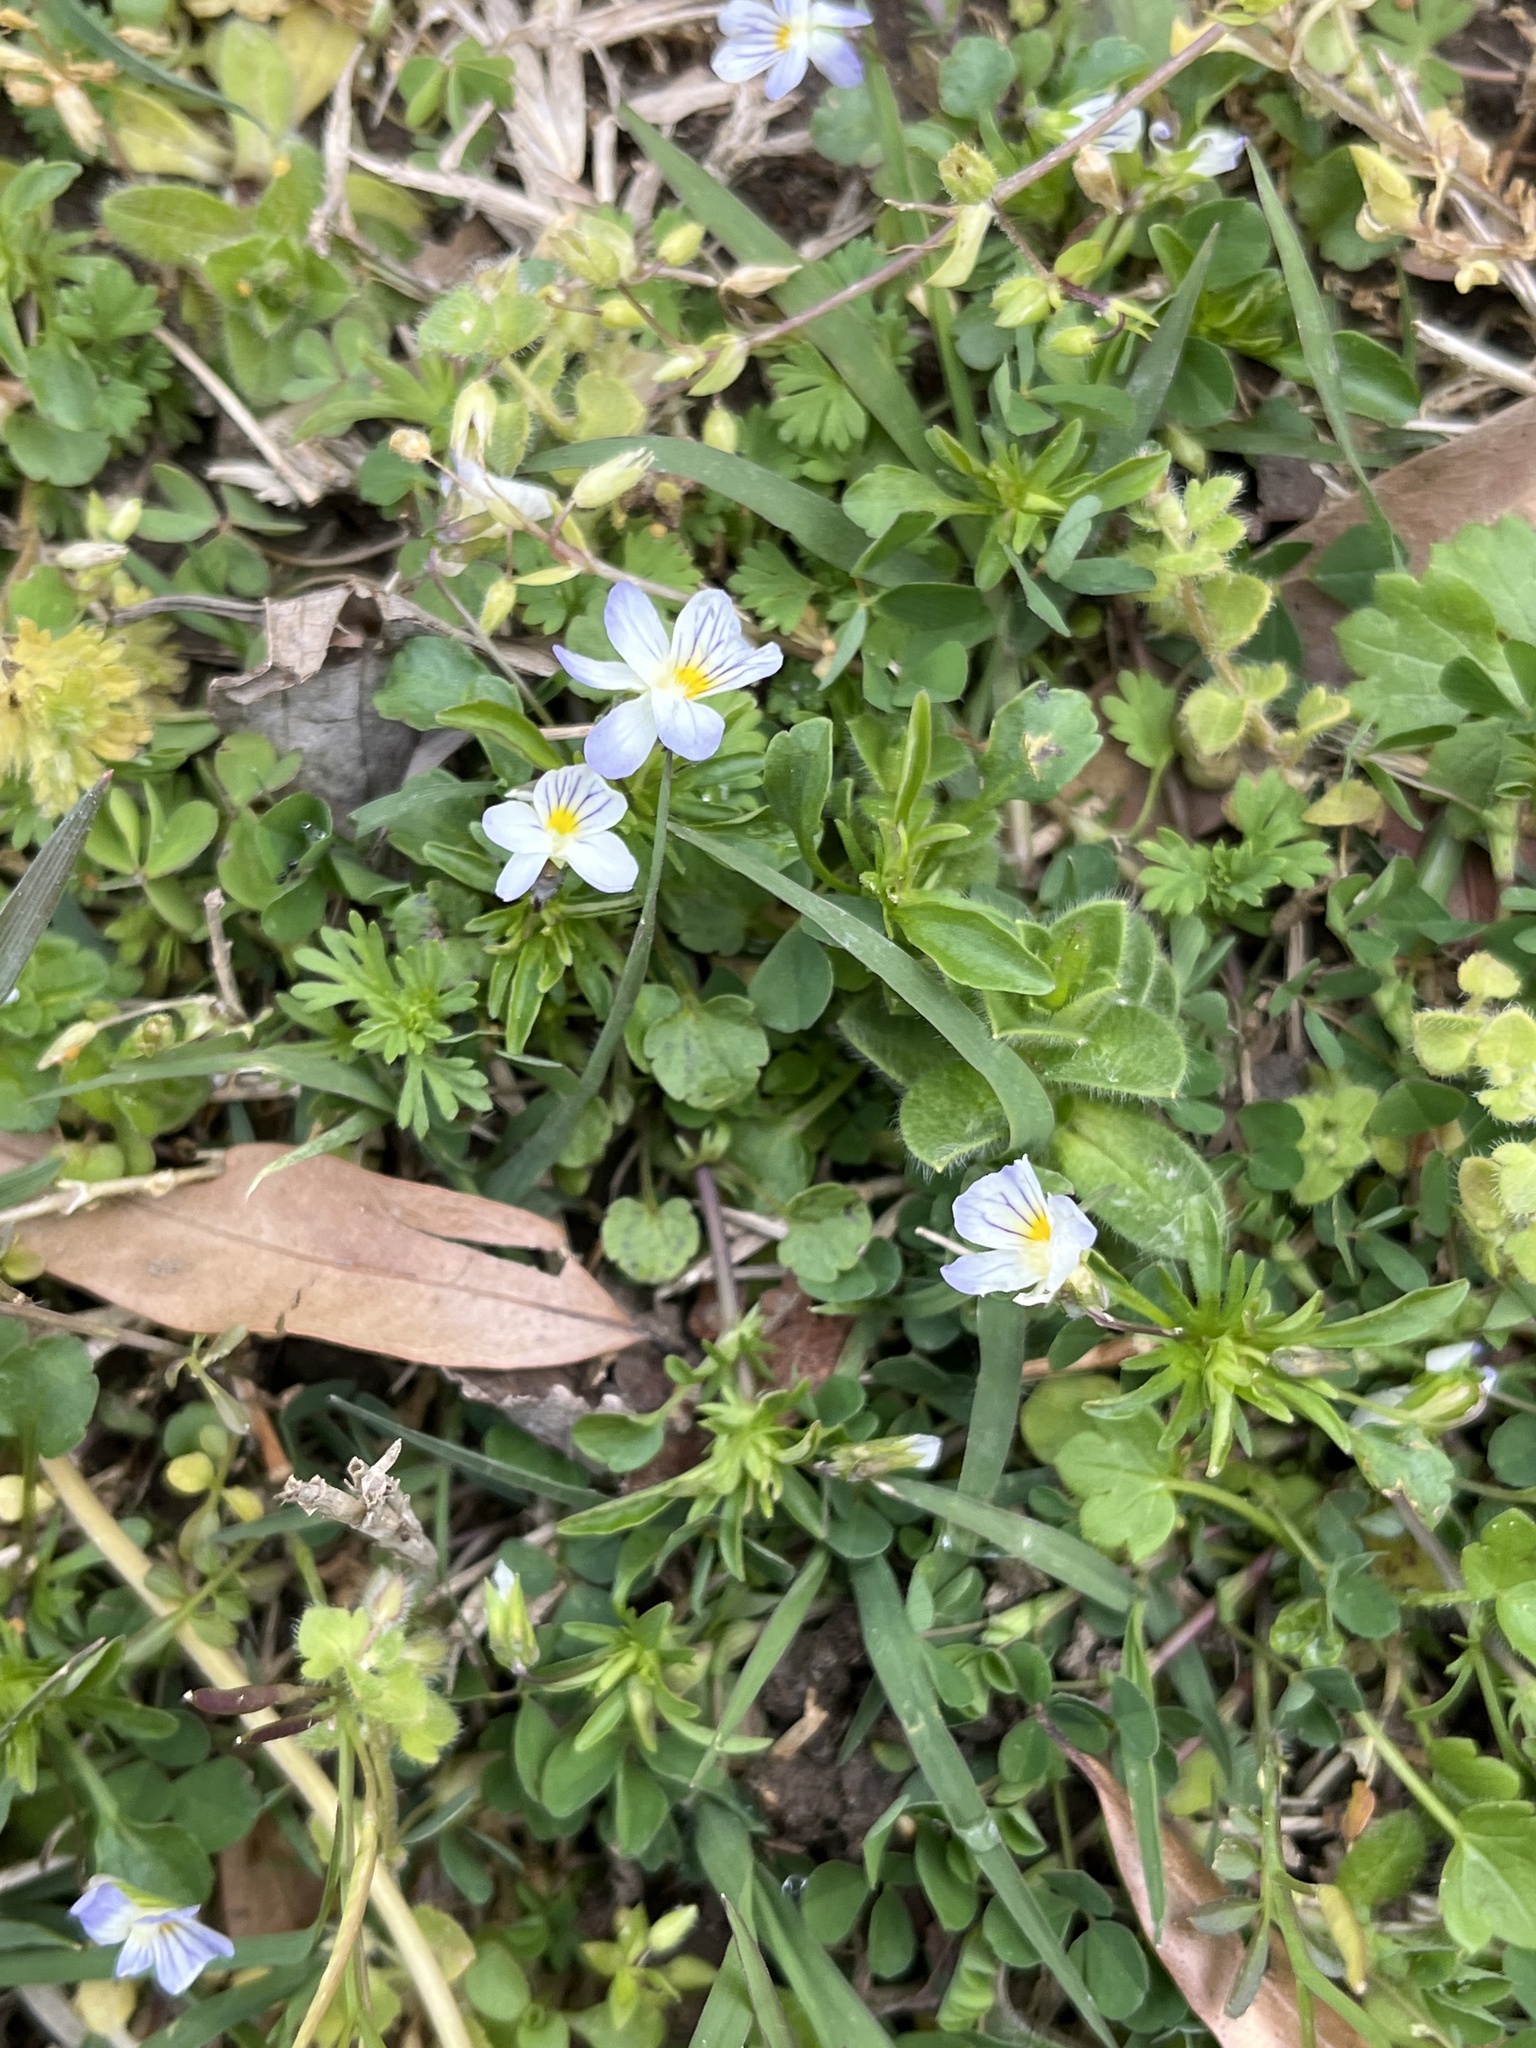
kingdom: Plantae
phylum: Tracheophyta
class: Magnoliopsida
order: Malpighiales
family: Violaceae
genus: Viola
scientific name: Viola rafinesquei
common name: American field pansy
